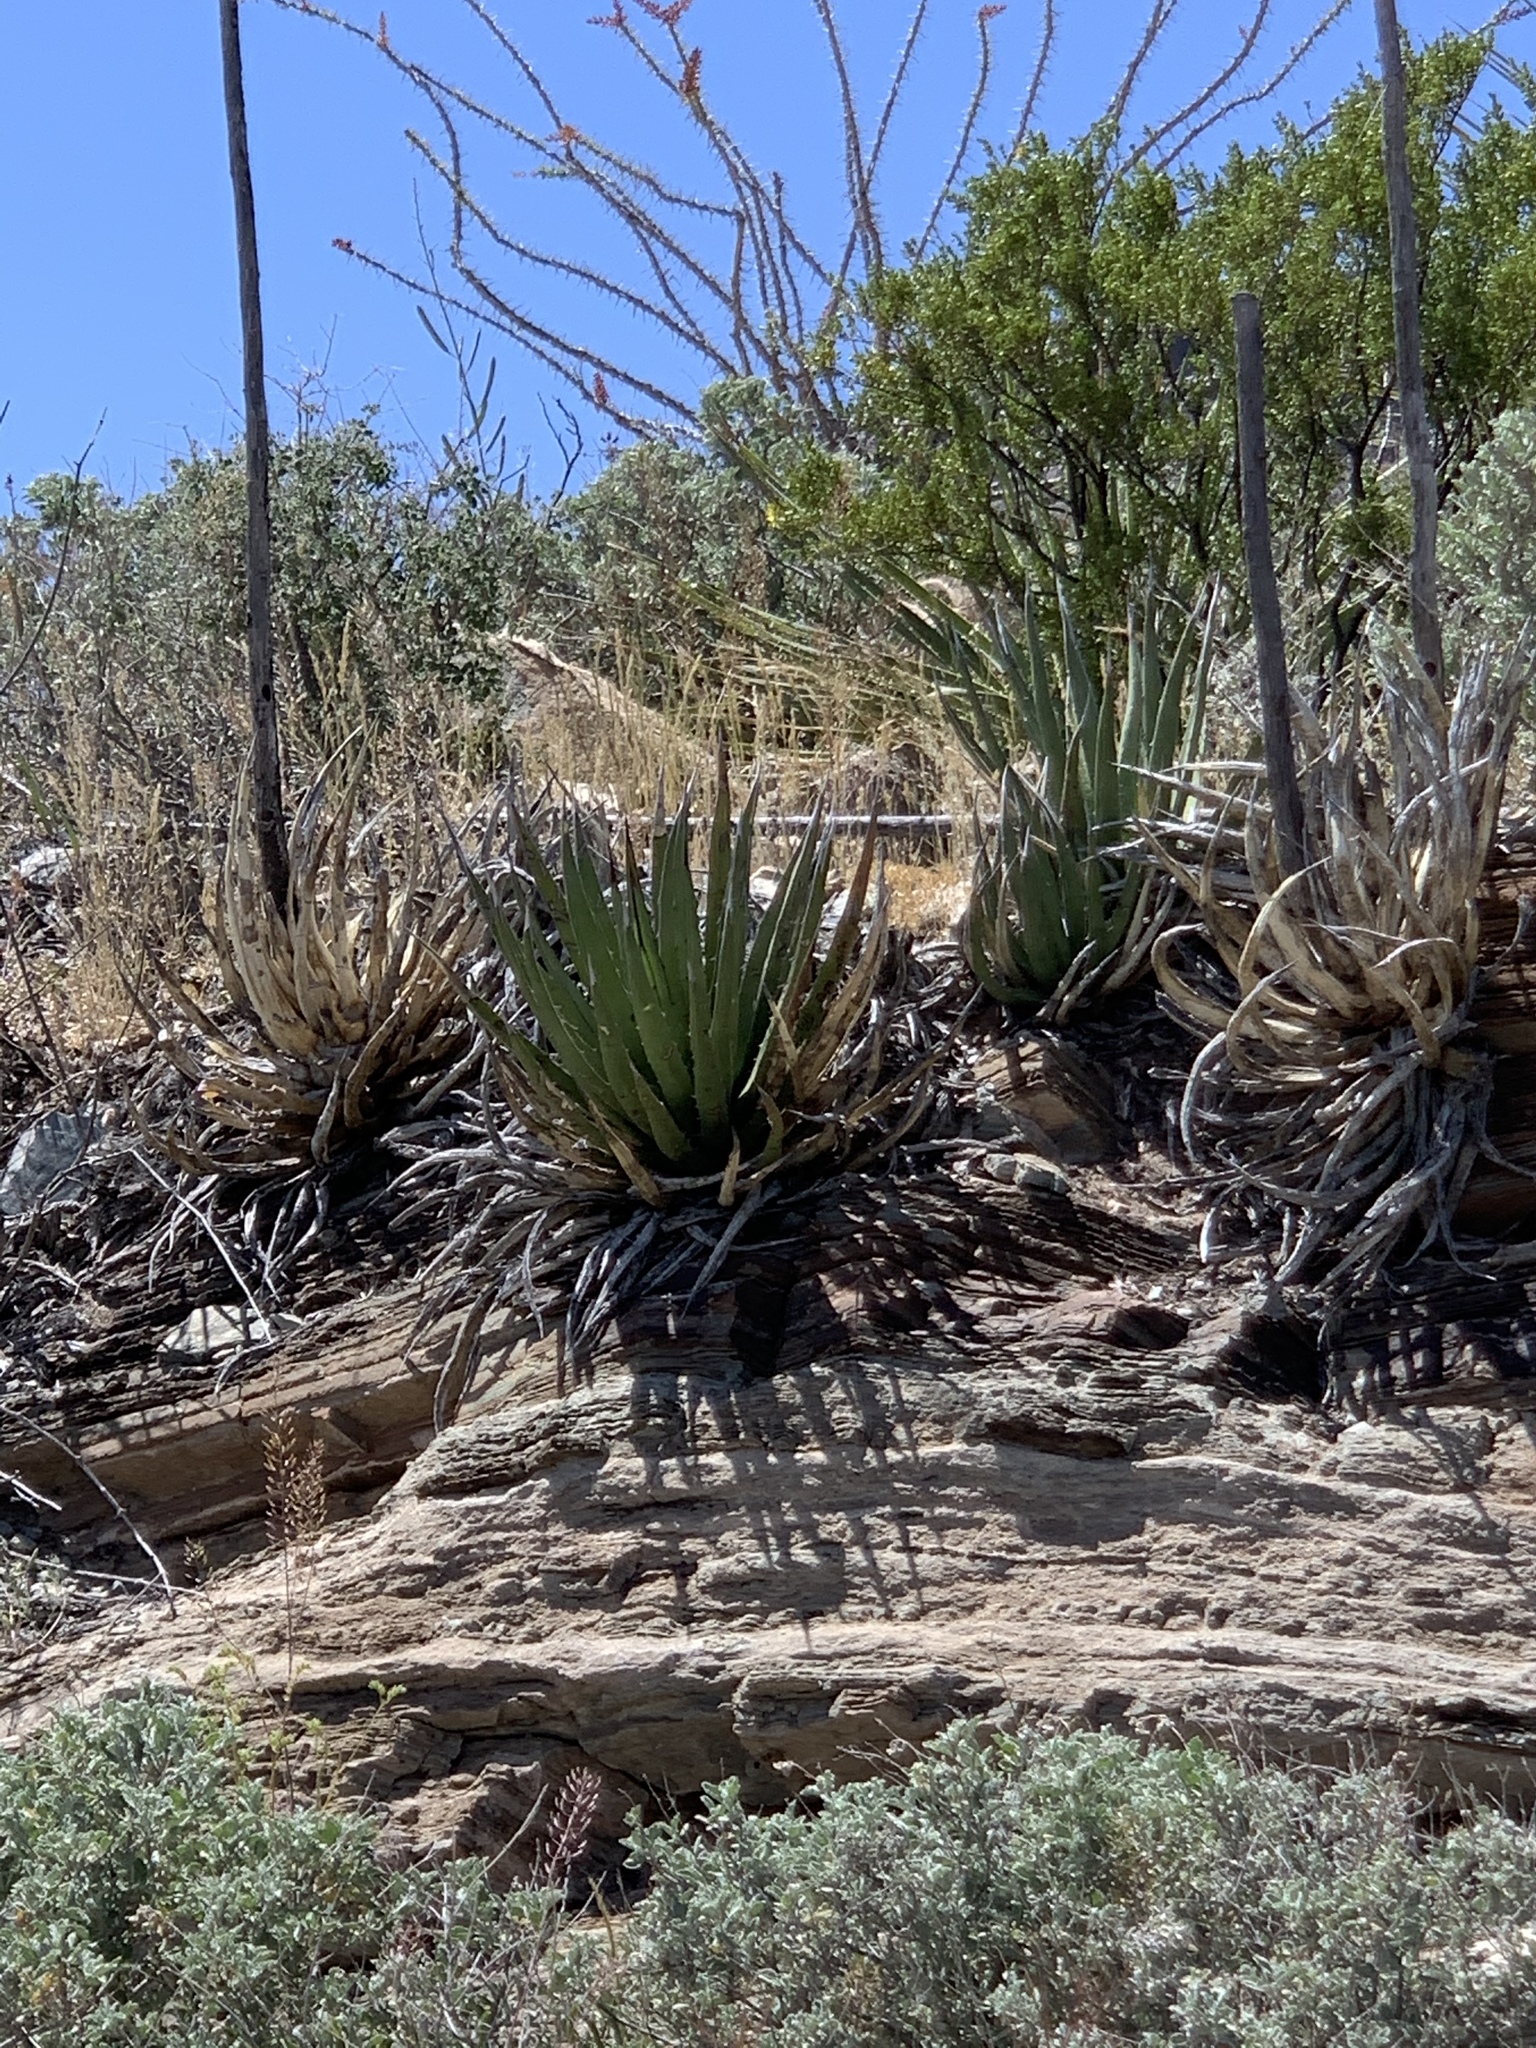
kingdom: Plantae
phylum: Tracheophyta
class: Liliopsida
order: Asparagales
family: Asparagaceae
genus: Agave
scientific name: Agave lechuguilla
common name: Lecheguilla agave
